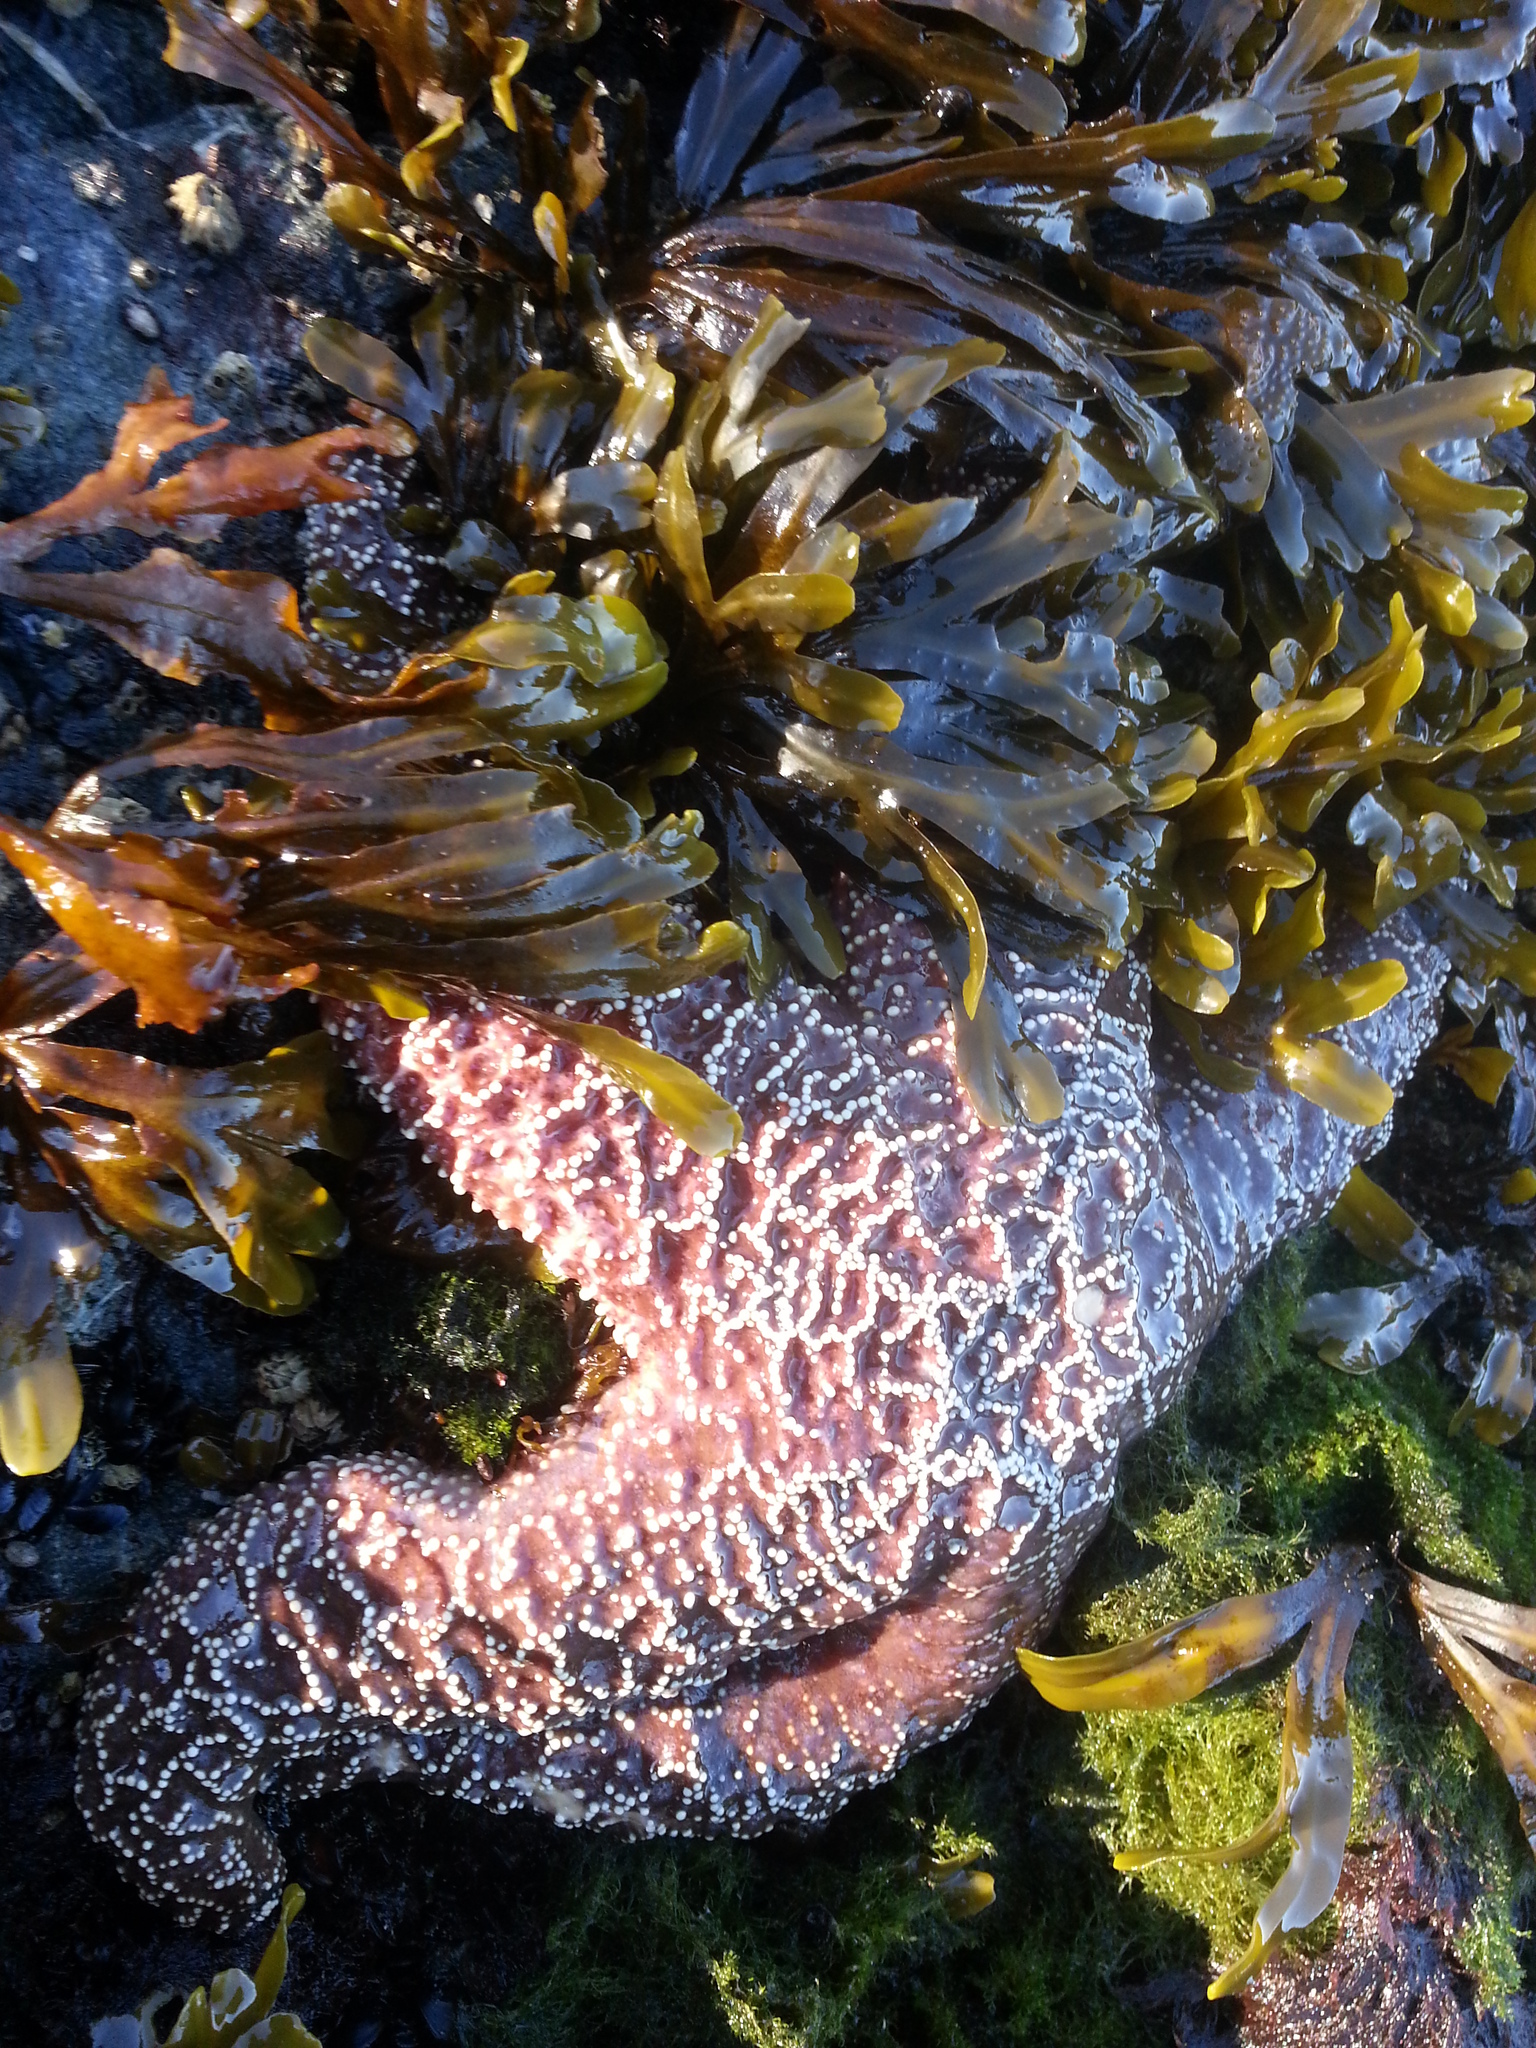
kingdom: Animalia
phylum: Echinodermata
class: Asteroidea
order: Forcipulatida
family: Asteriidae
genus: Pisaster
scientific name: Pisaster ochraceus
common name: Ochre stars
